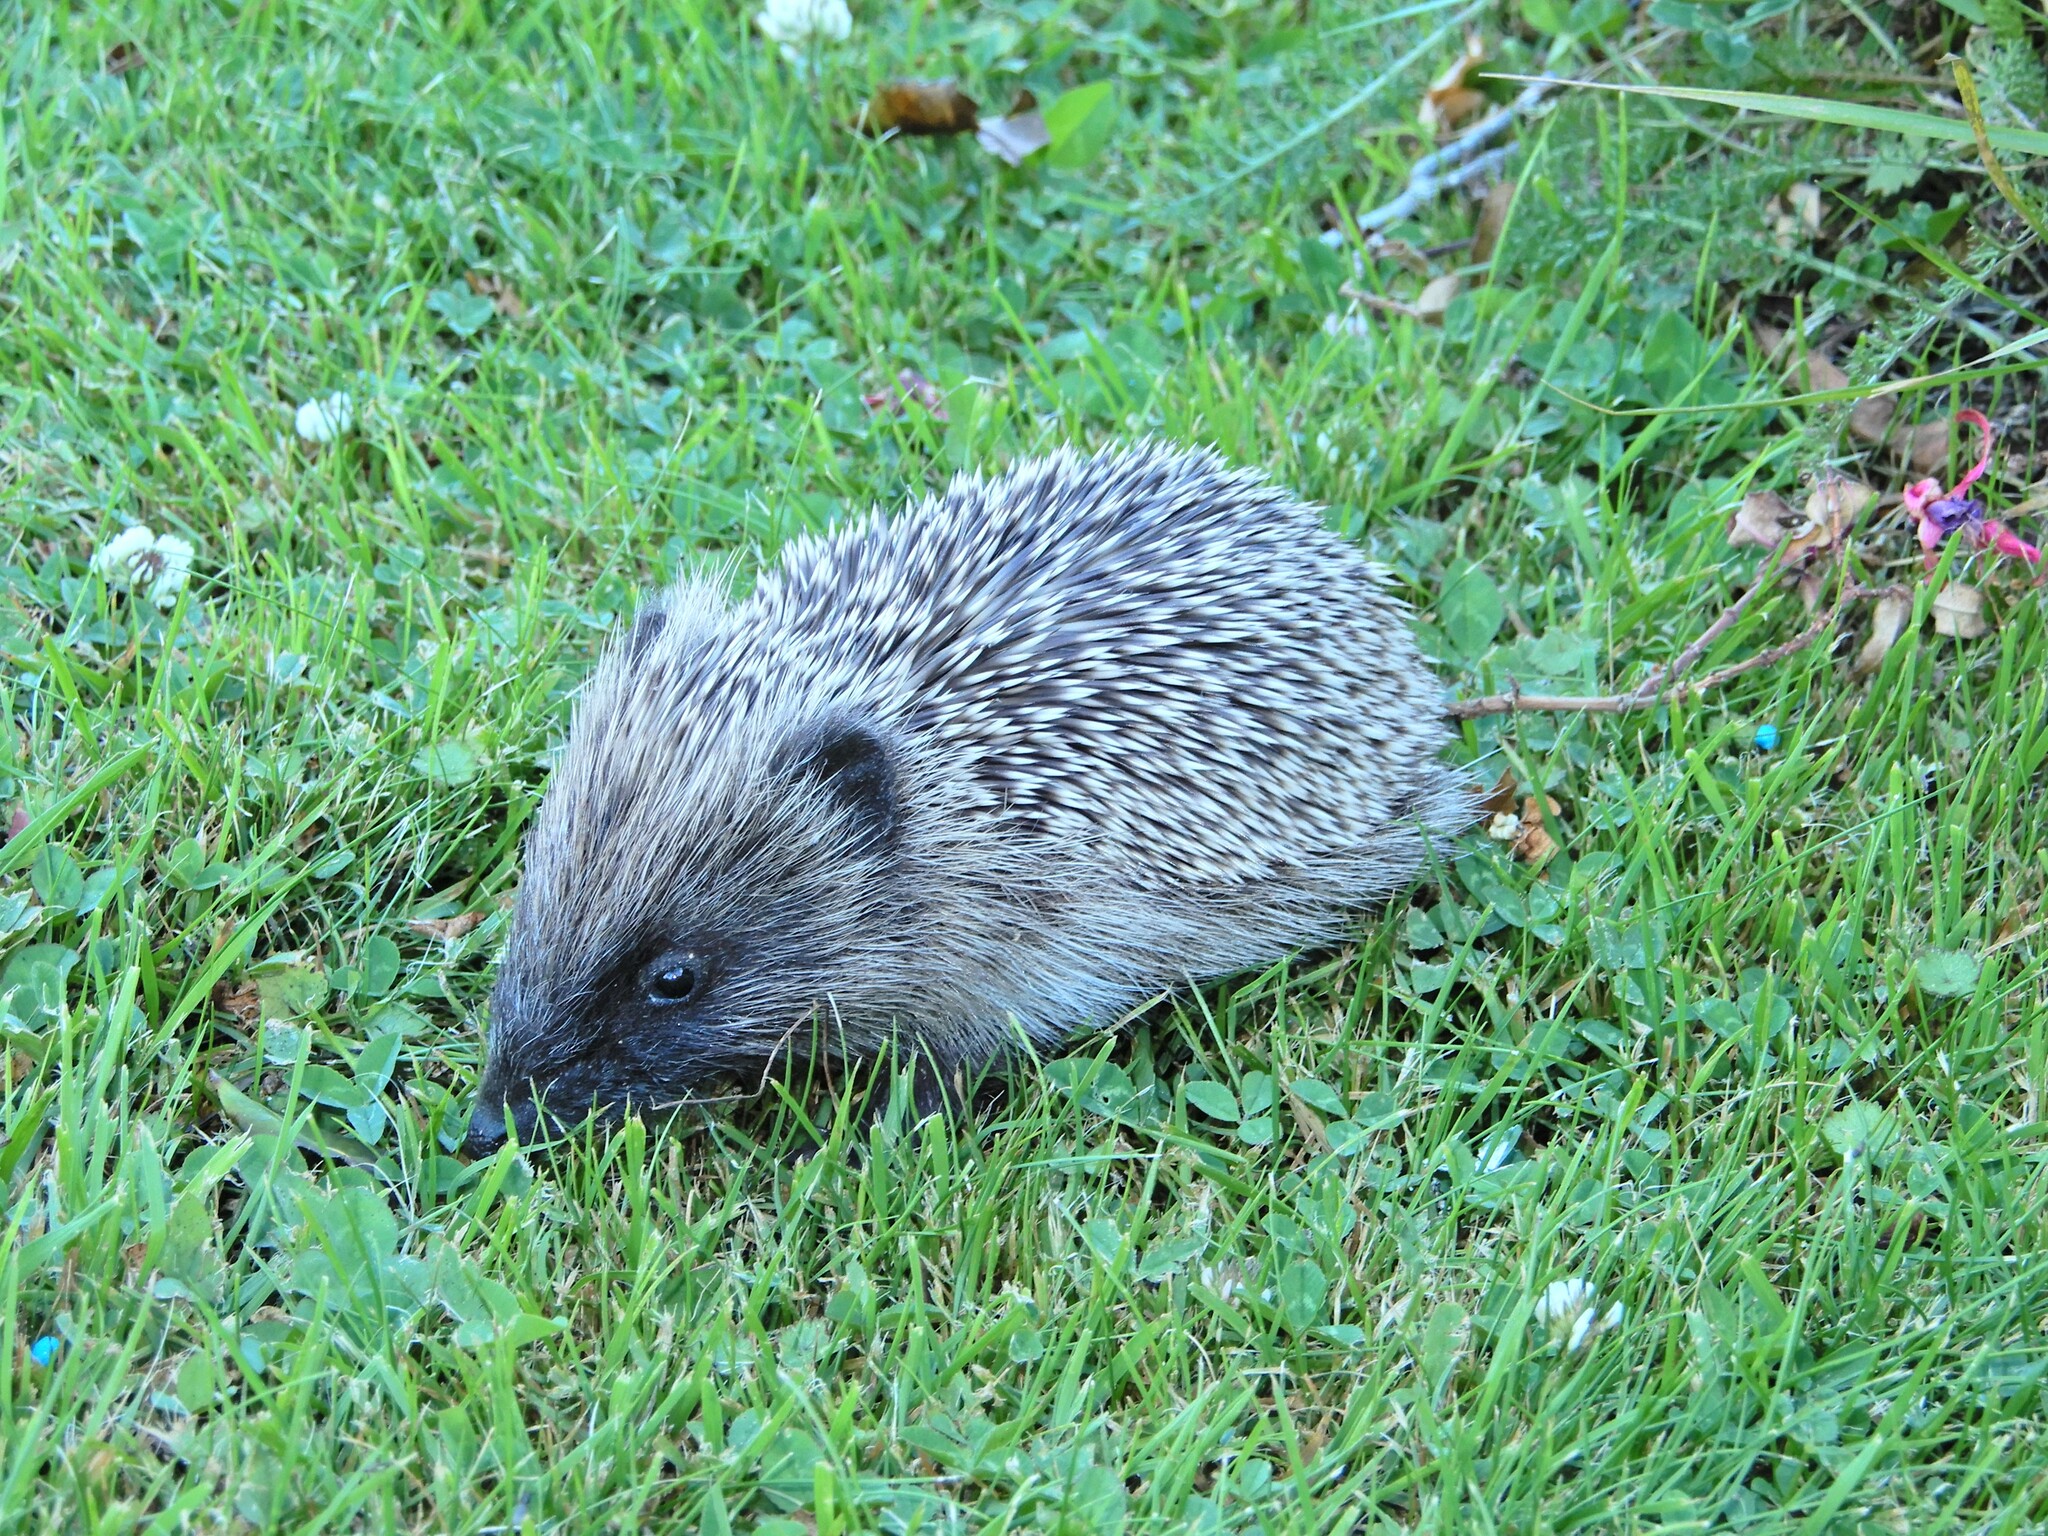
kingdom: Animalia
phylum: Chordata
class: Mammalia
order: Erinaceomorpha
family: Erinaceidae
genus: Erinaceus
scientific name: Erinaceus europaeus
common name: West european hedgehog
